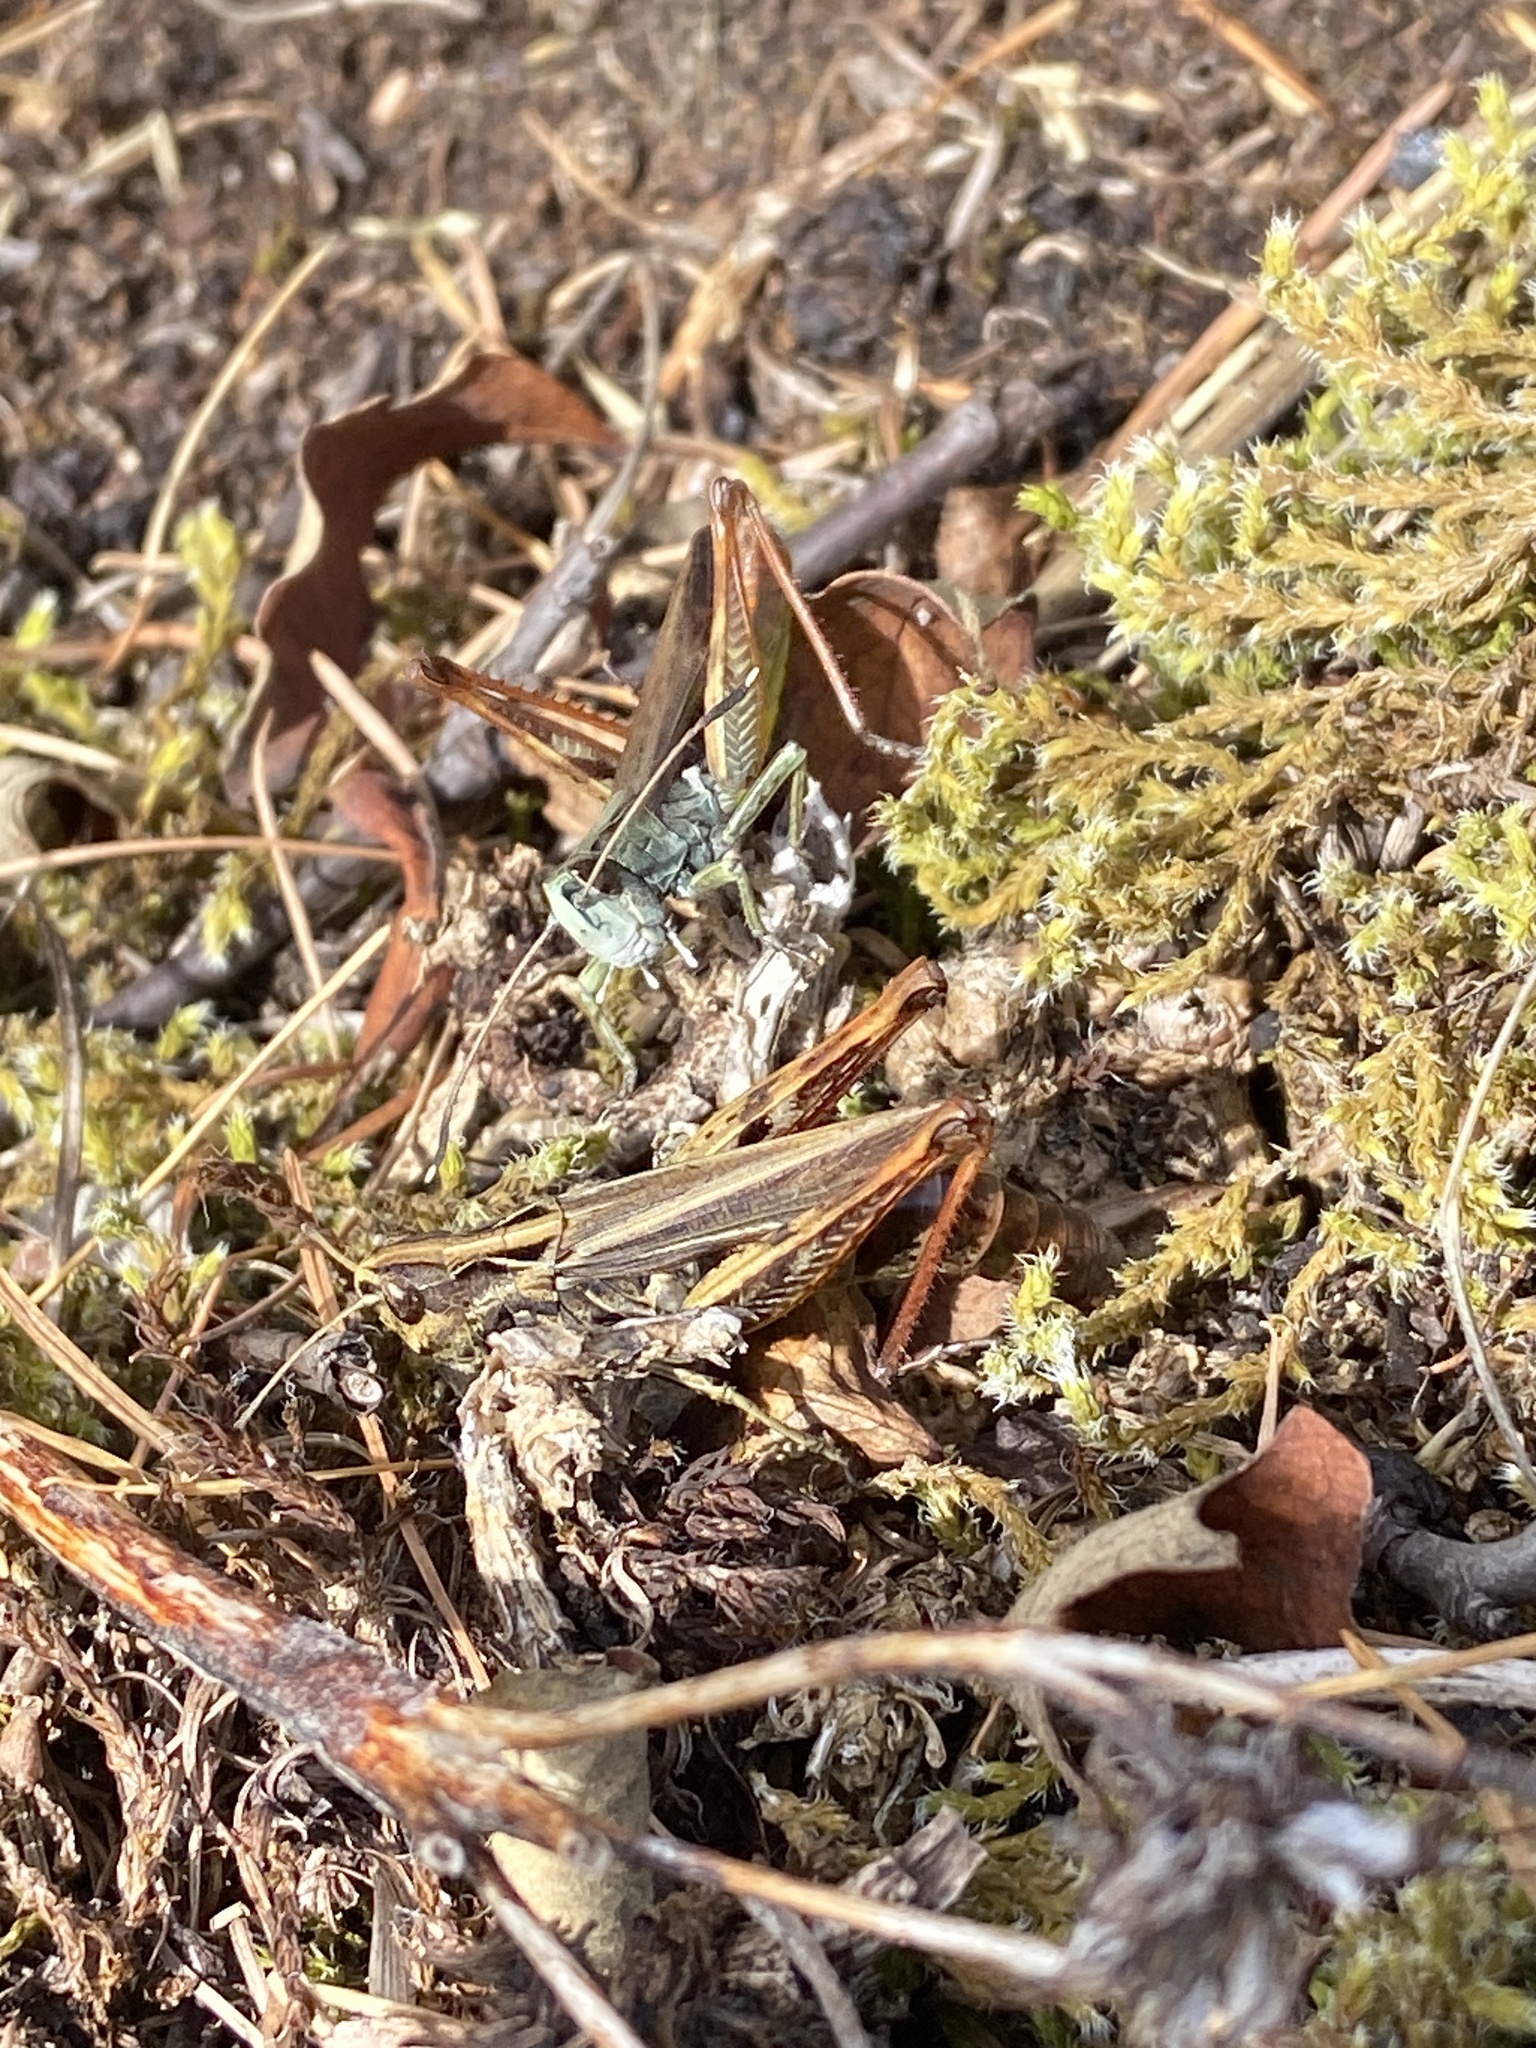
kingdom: Animalia
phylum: Arthropoda
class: Insecta
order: Orthoptera
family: Acrididae
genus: Gomphocerippus
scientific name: Gomphocerippus rufus
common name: Rufous grasshopper
